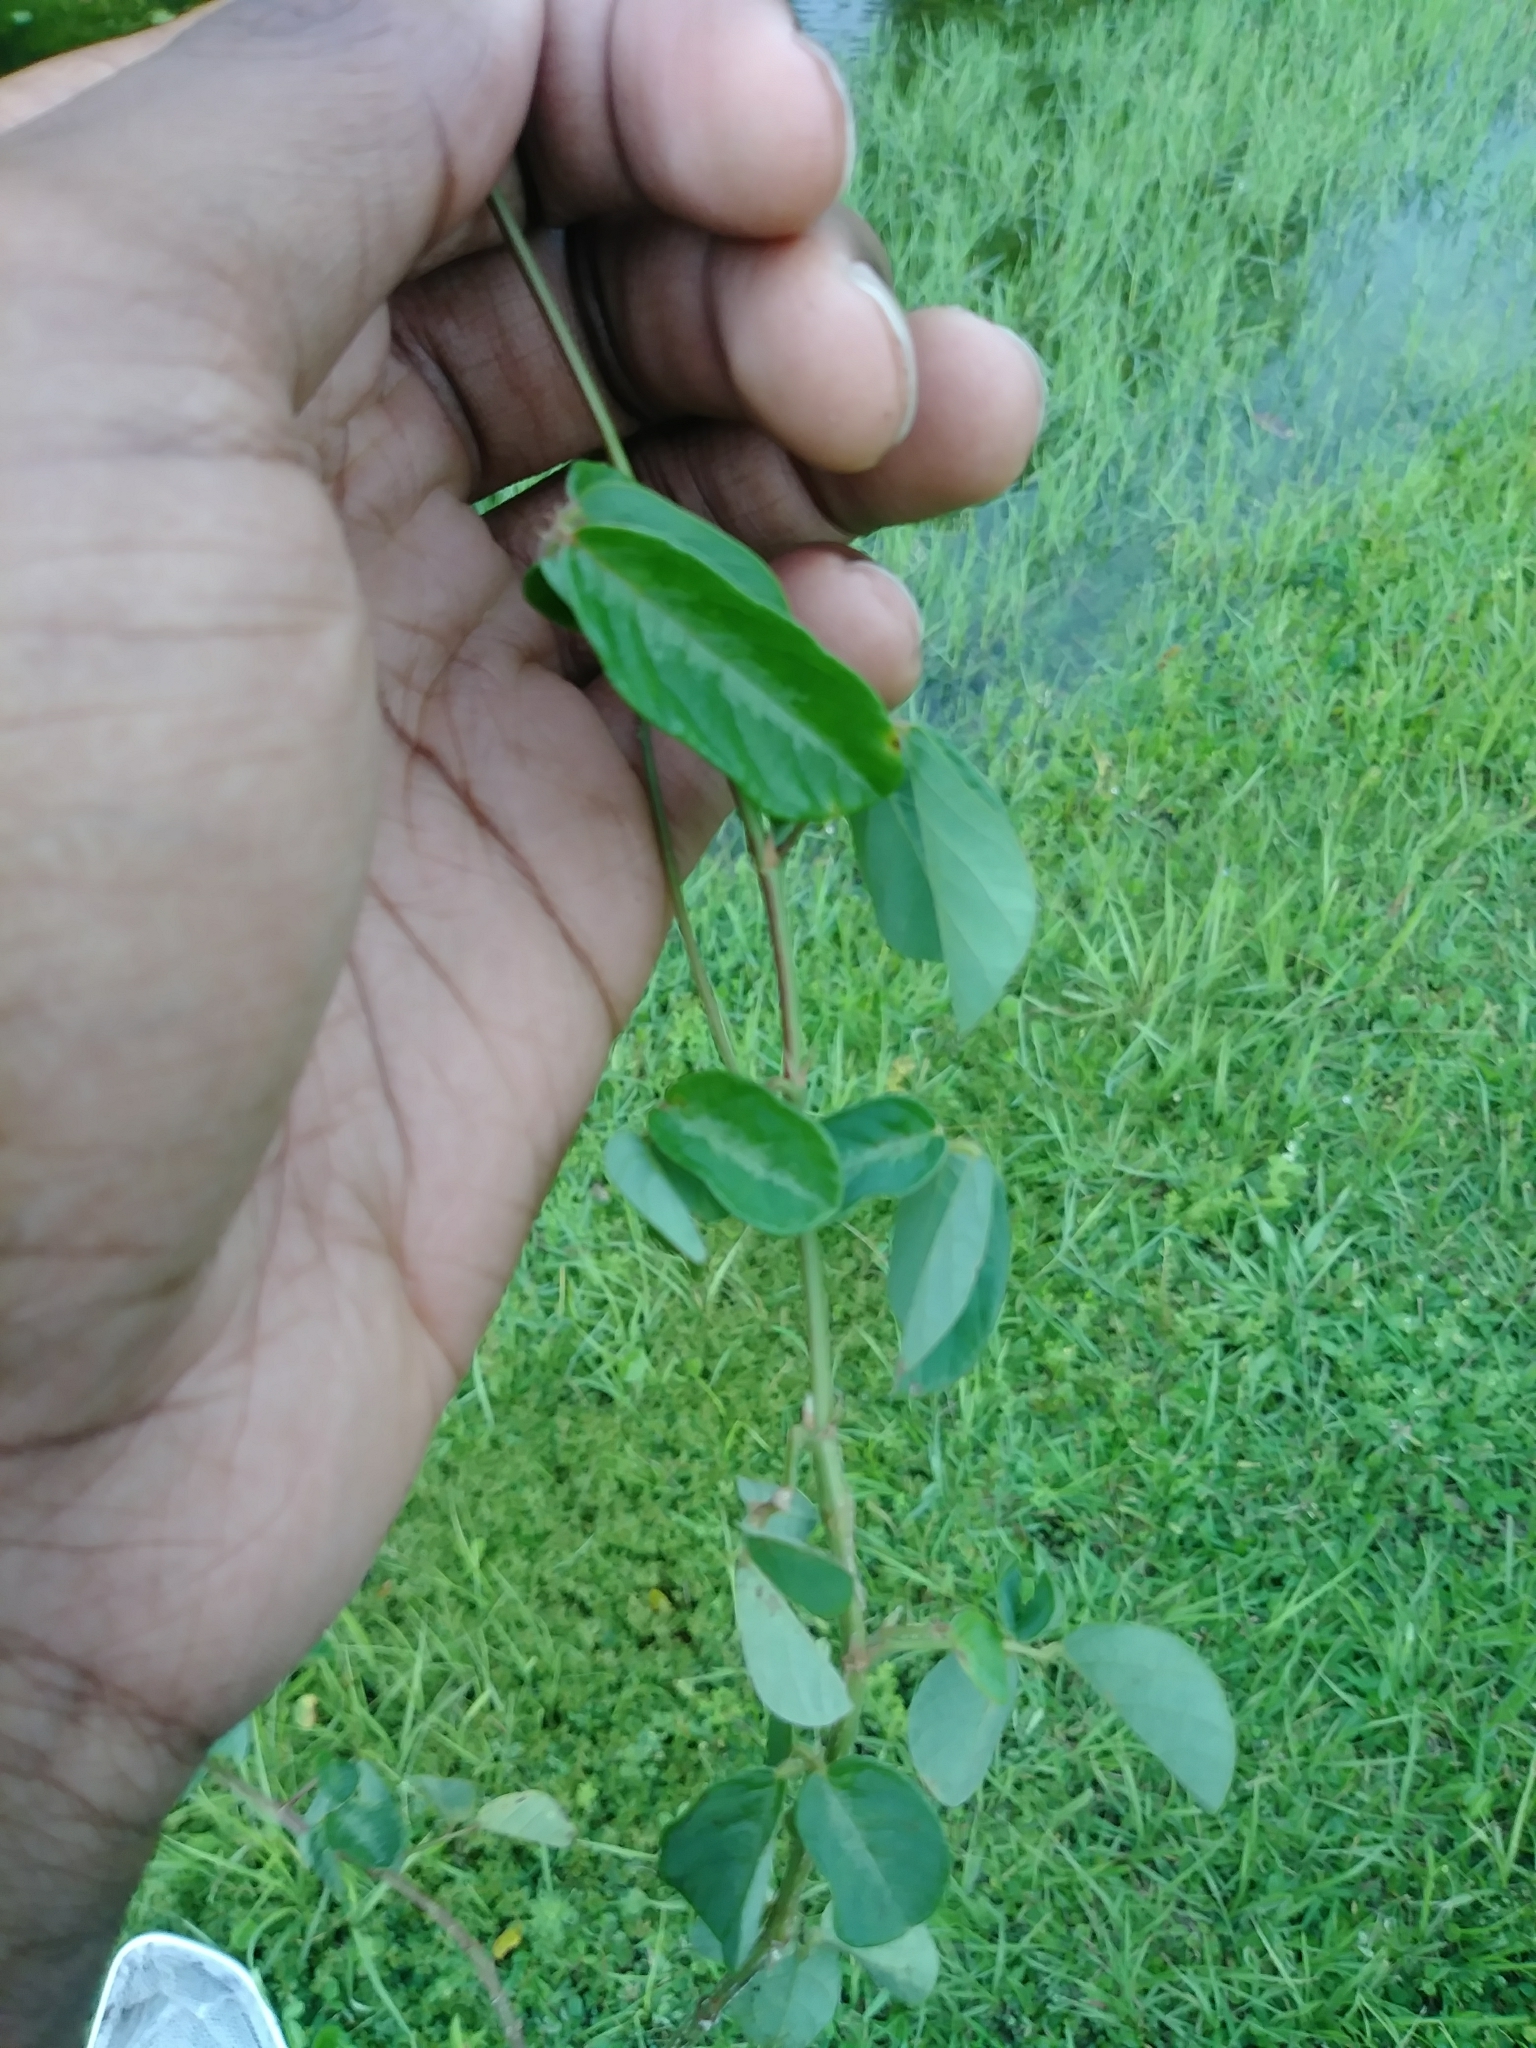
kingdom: Plantae
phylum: Tracheophyta
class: Magnoliopsida
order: Fabales
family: Fabaceae
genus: Desmodium
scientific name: Desmodium incanum
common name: Tickclover
